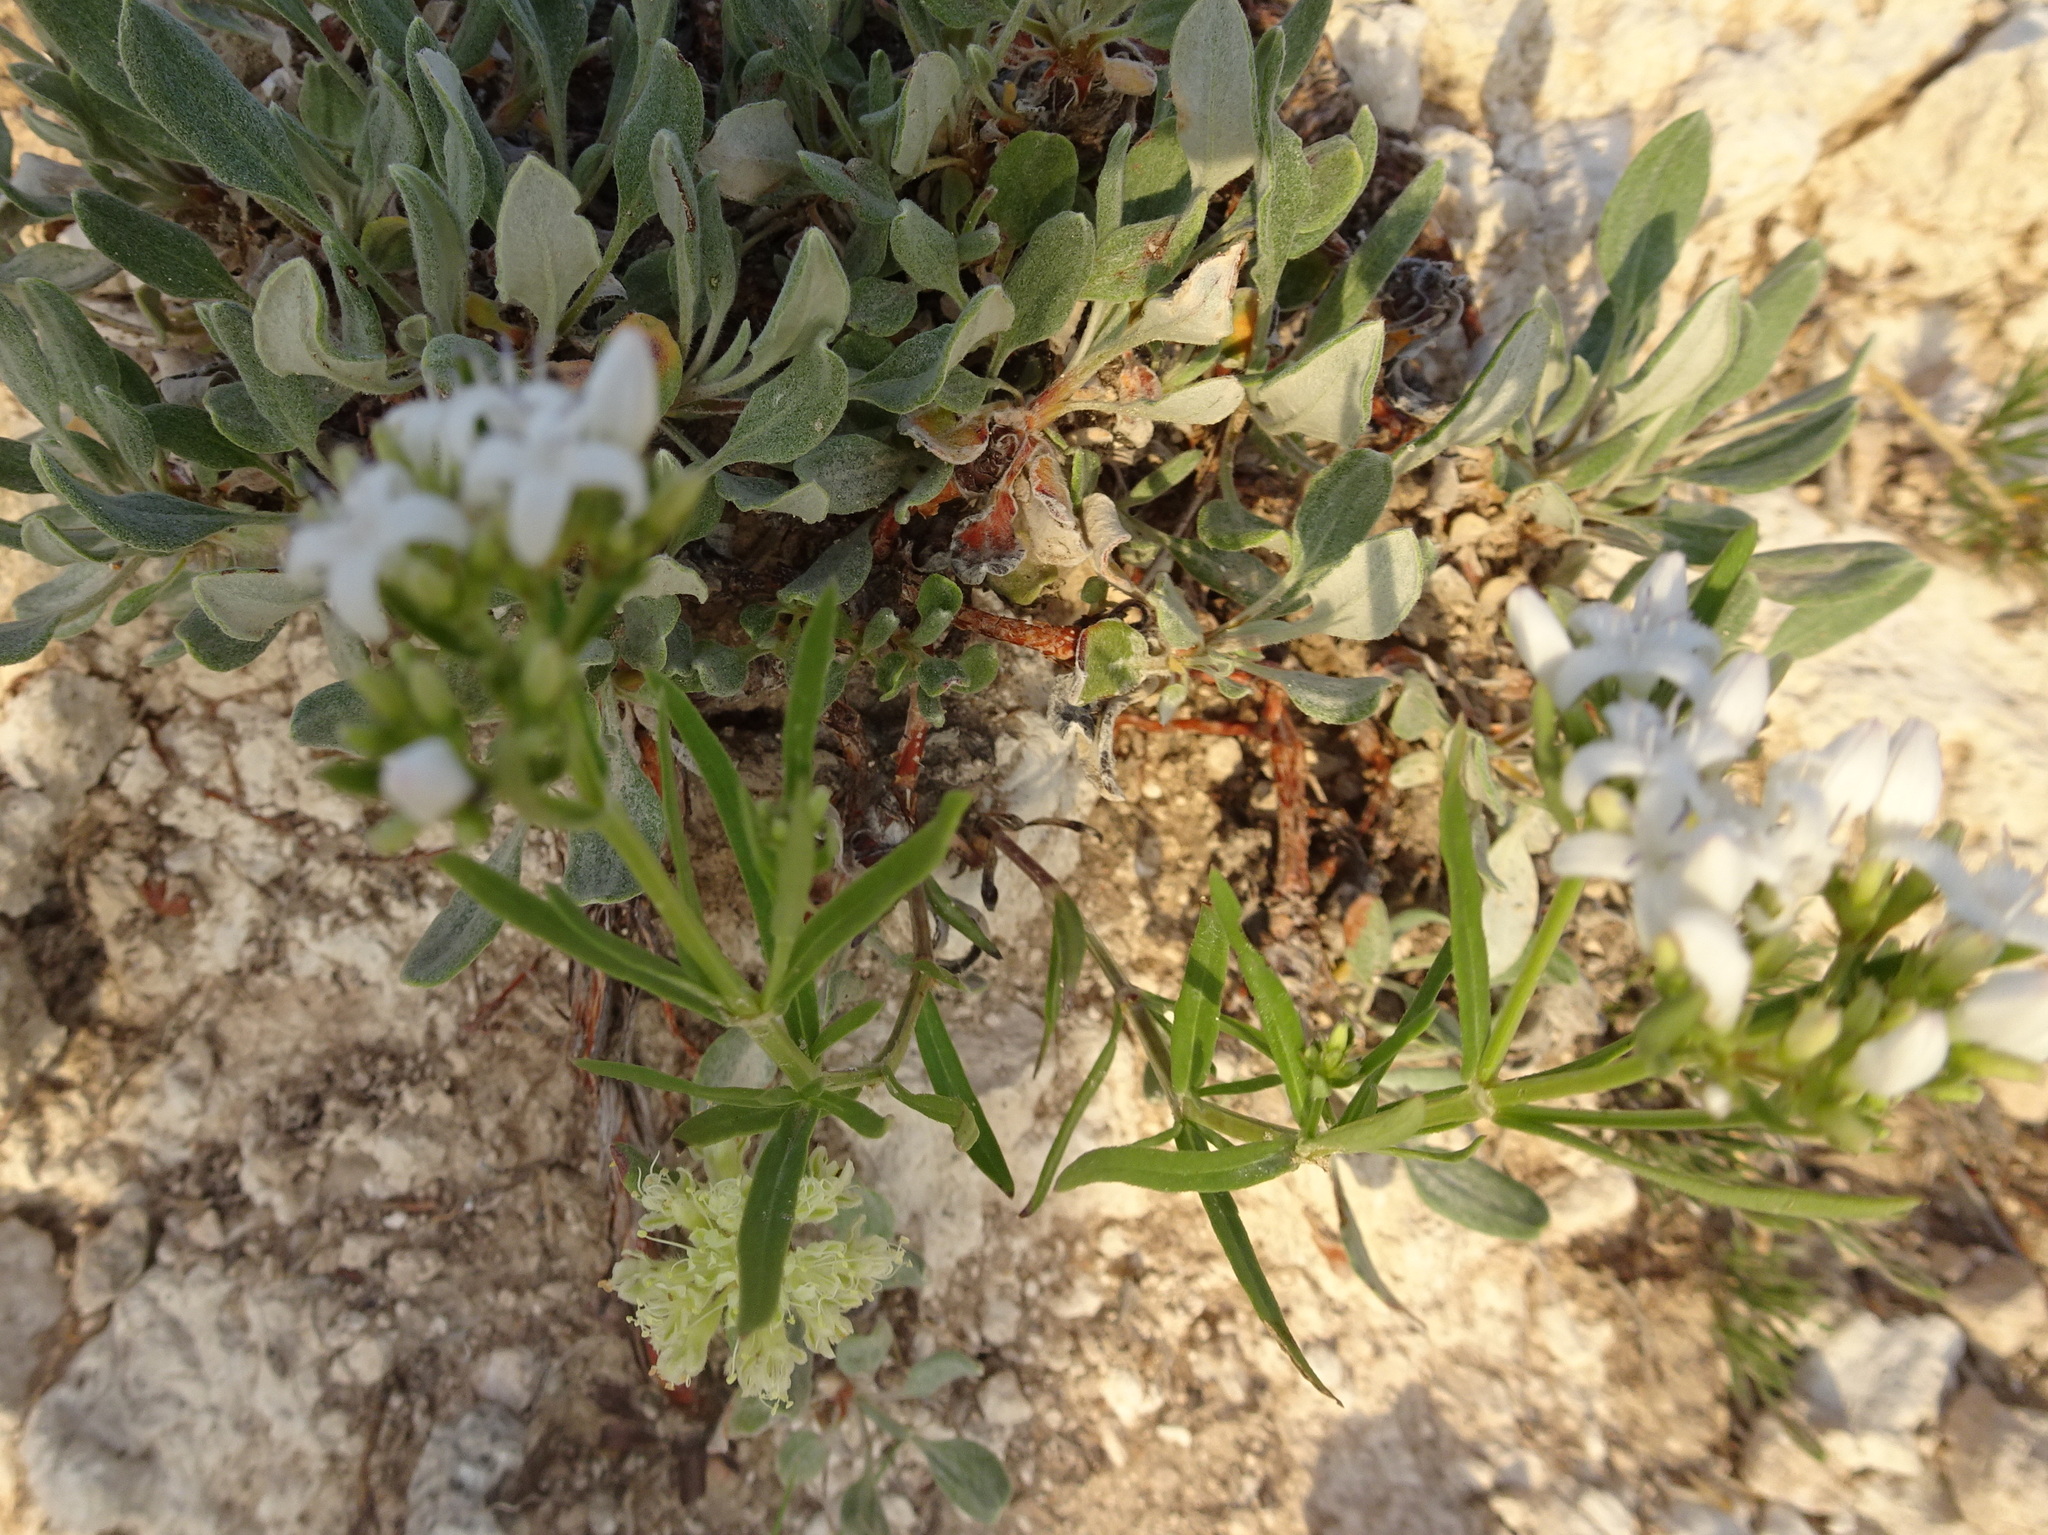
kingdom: Plantae
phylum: Tracheophyta
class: Magnoliopsida
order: Gentianales
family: Rubiaceae
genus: Stenaria
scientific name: Stenaria nigricans
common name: Diamondflowers
